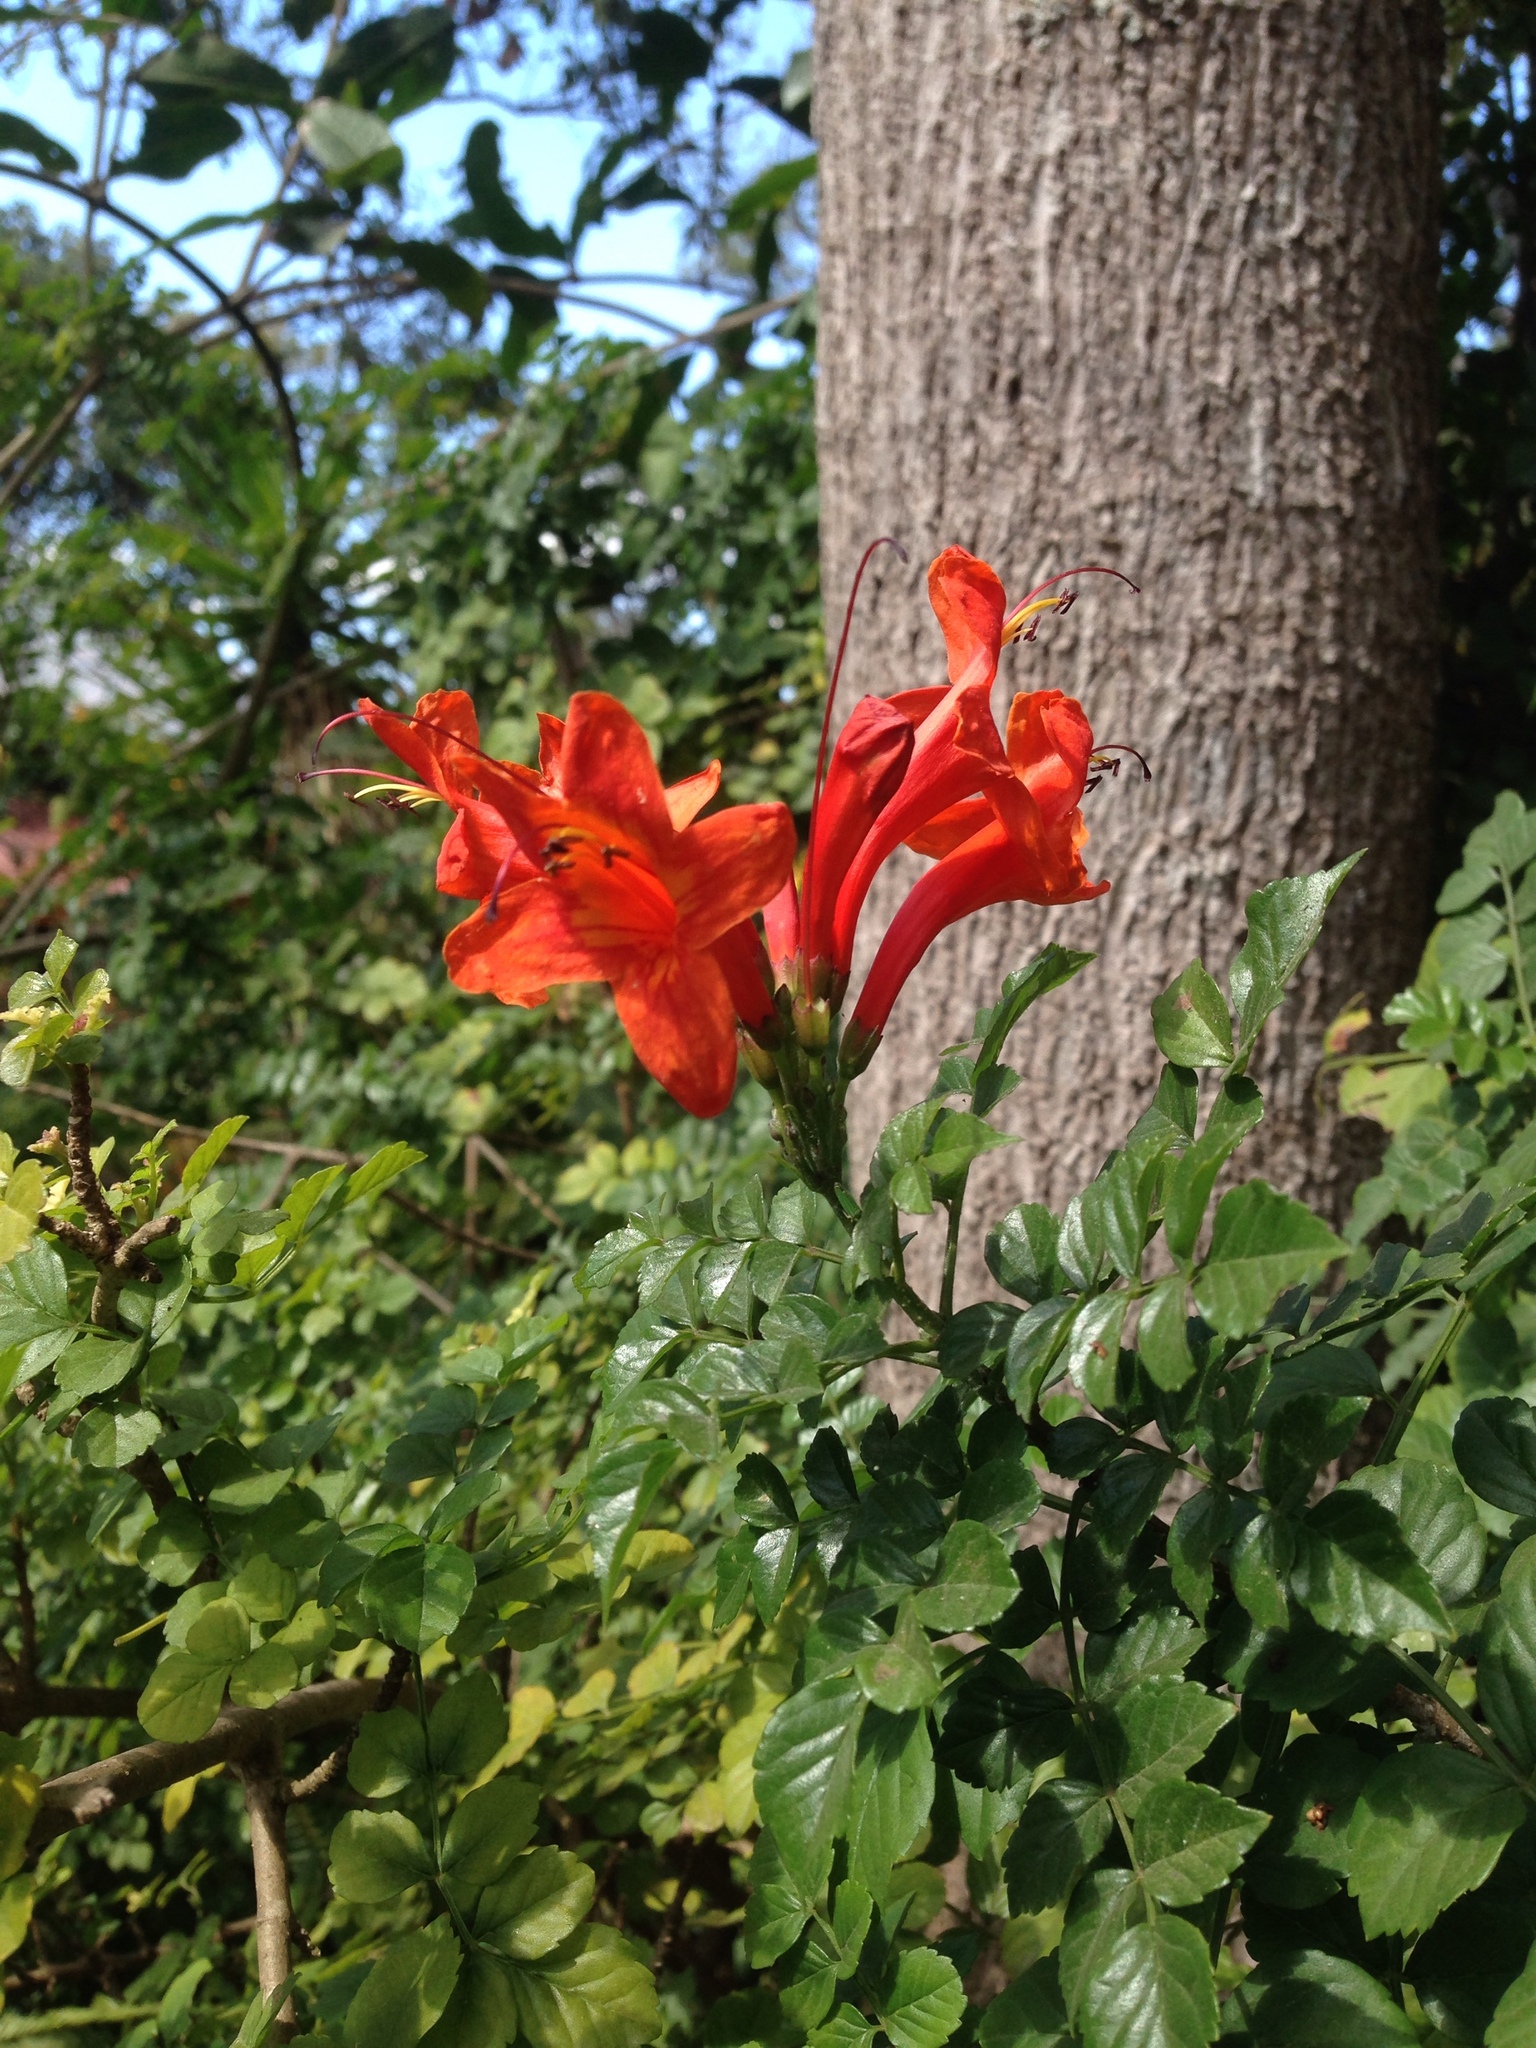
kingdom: Plantae
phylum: Tracheophyta
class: Magnoliopsida
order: Lamiales
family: Bignoniaceae
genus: Tecomaria
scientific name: Tecomaria capensis
